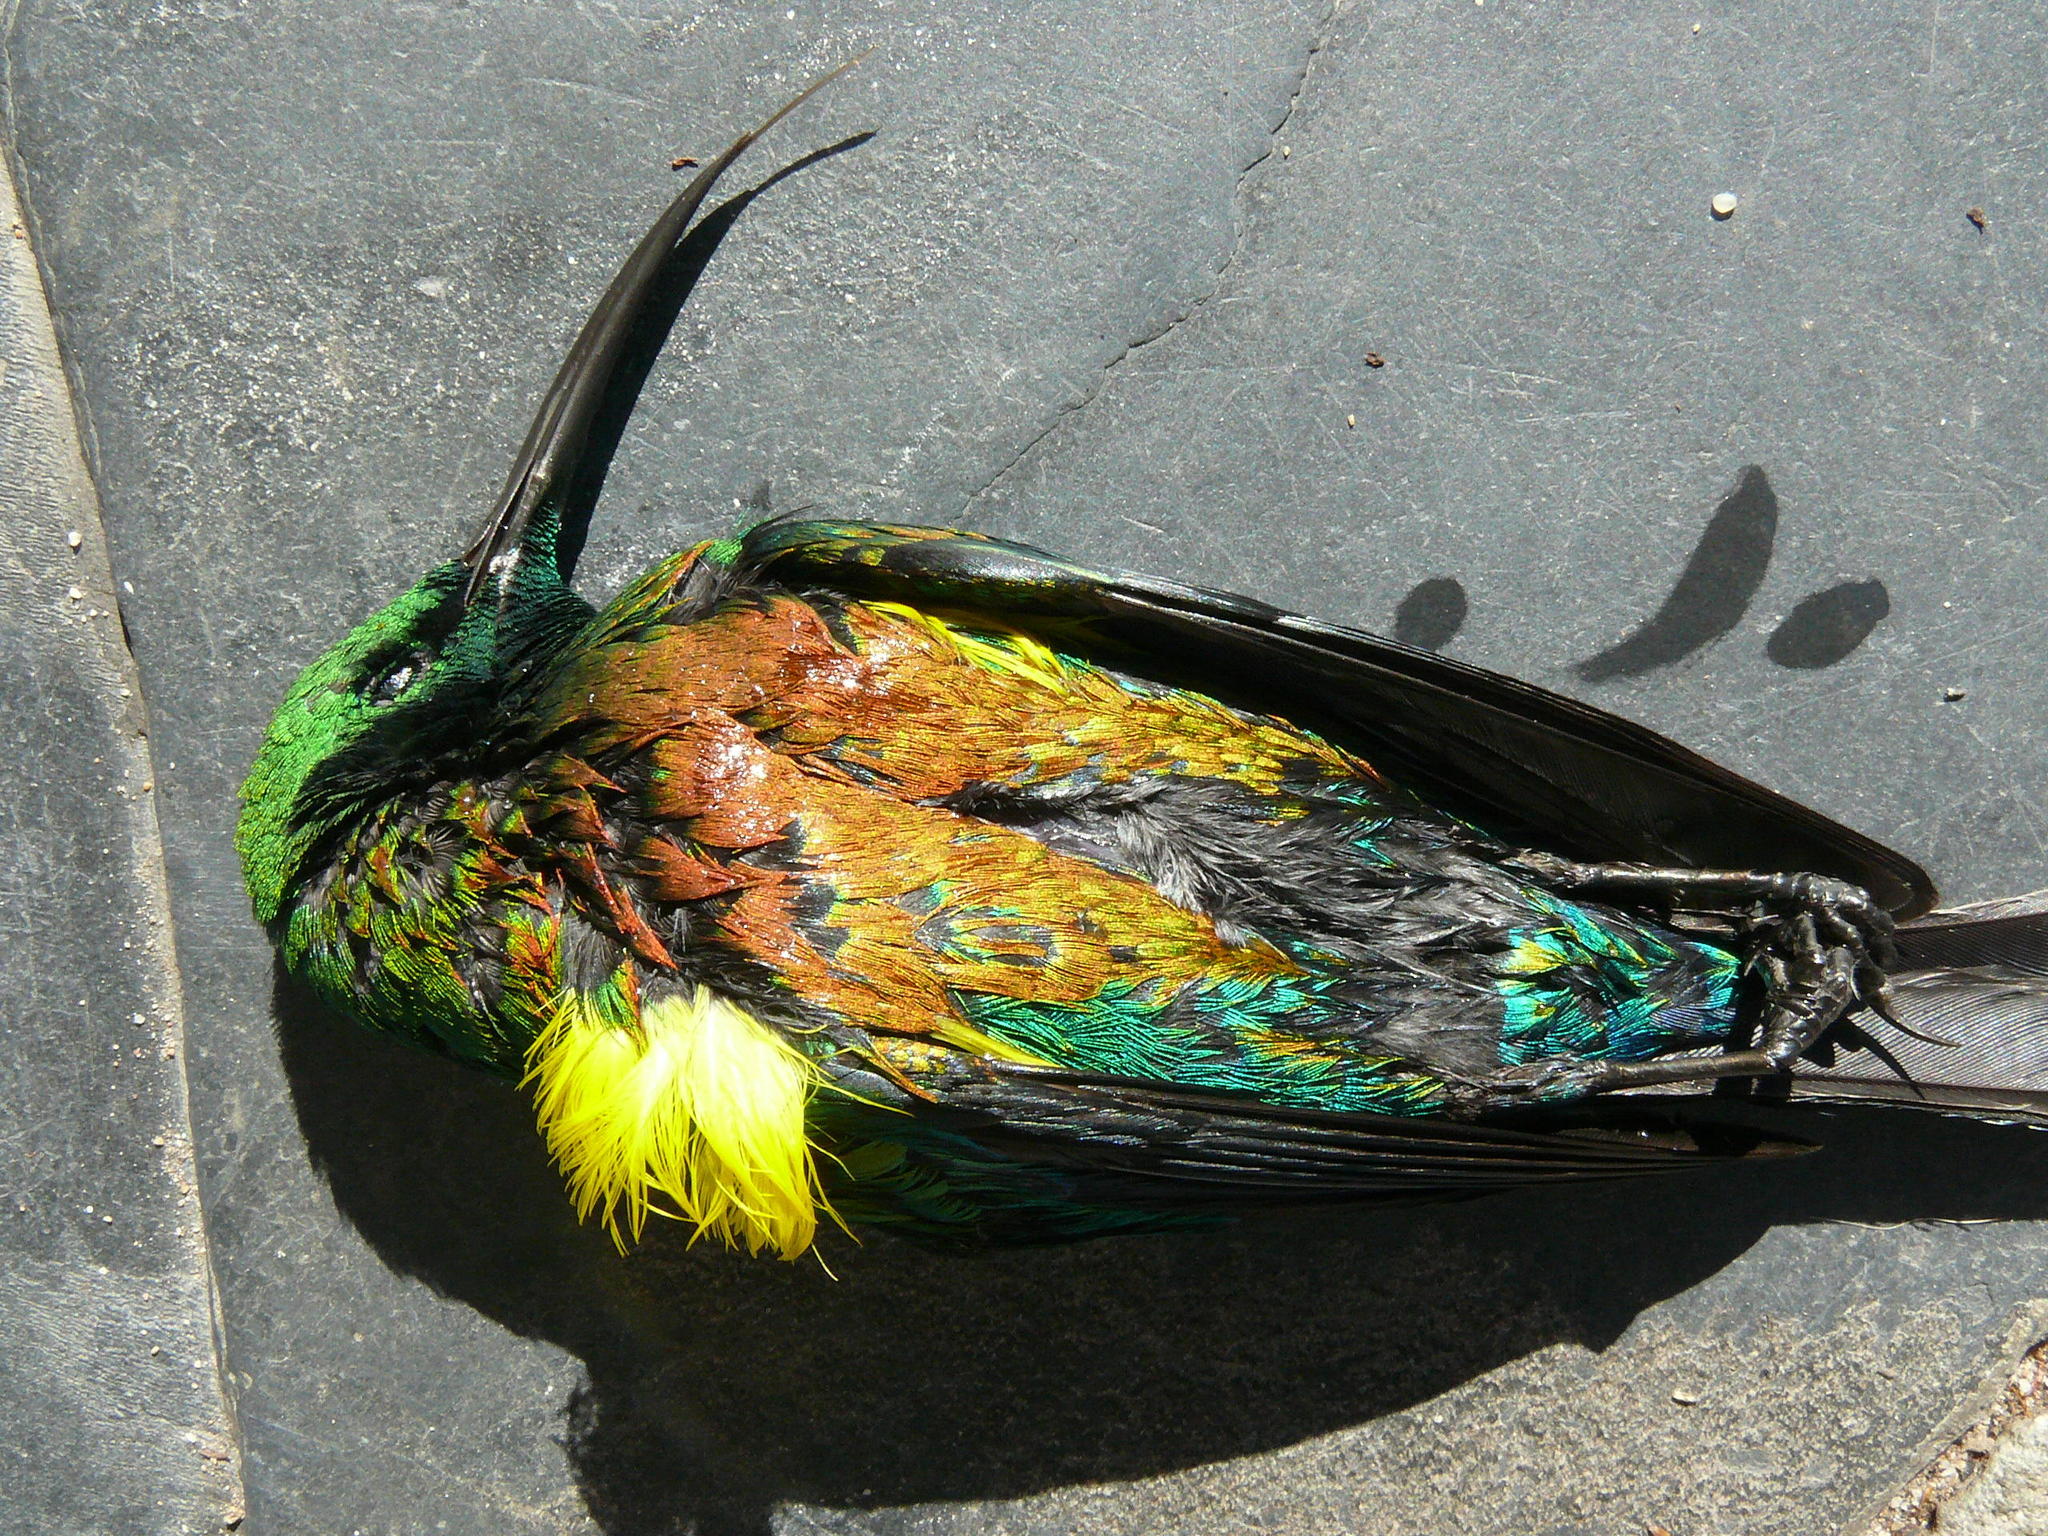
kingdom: Animalia
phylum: Chordata
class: Aves
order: Passeriformes
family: Nectariniidae
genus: Nectarinia
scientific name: Nectarinia famosa
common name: Malachite sunbird
